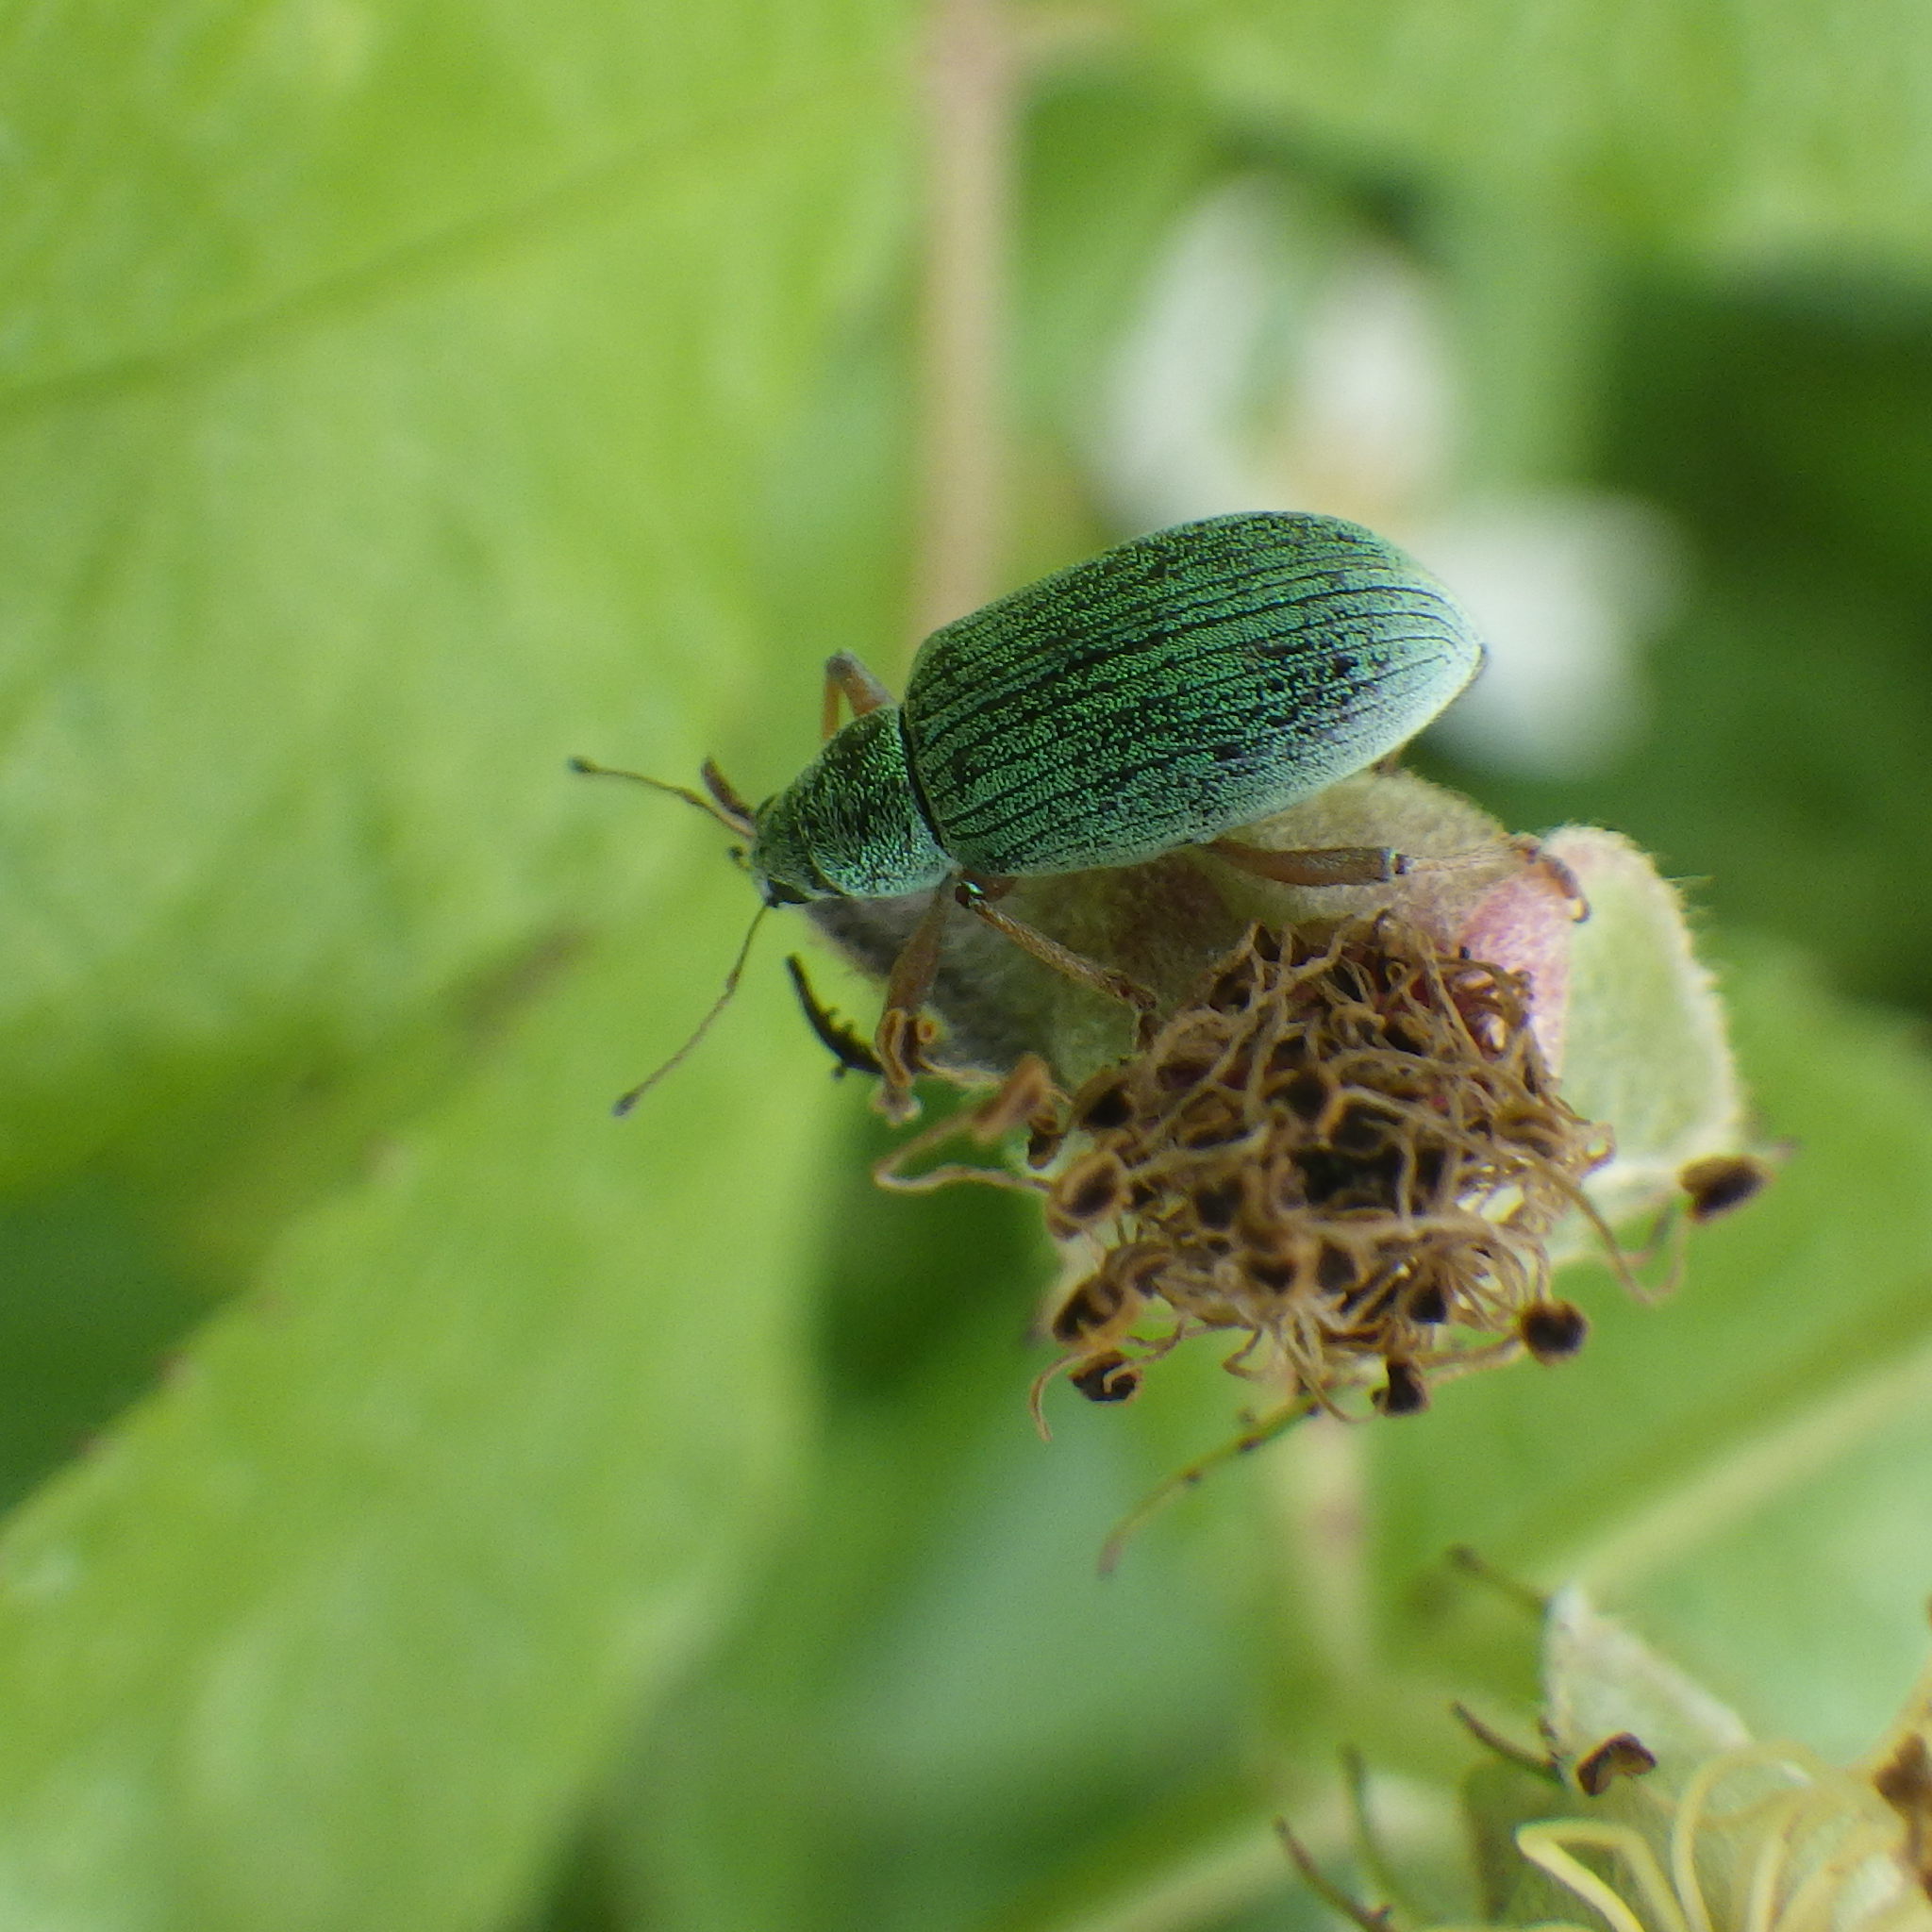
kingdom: Animalia
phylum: Arthropoda
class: Insecta
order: Coleoptera
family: Curculionidae
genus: Polydrusus
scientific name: Polydrusus formosus
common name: Weevil
